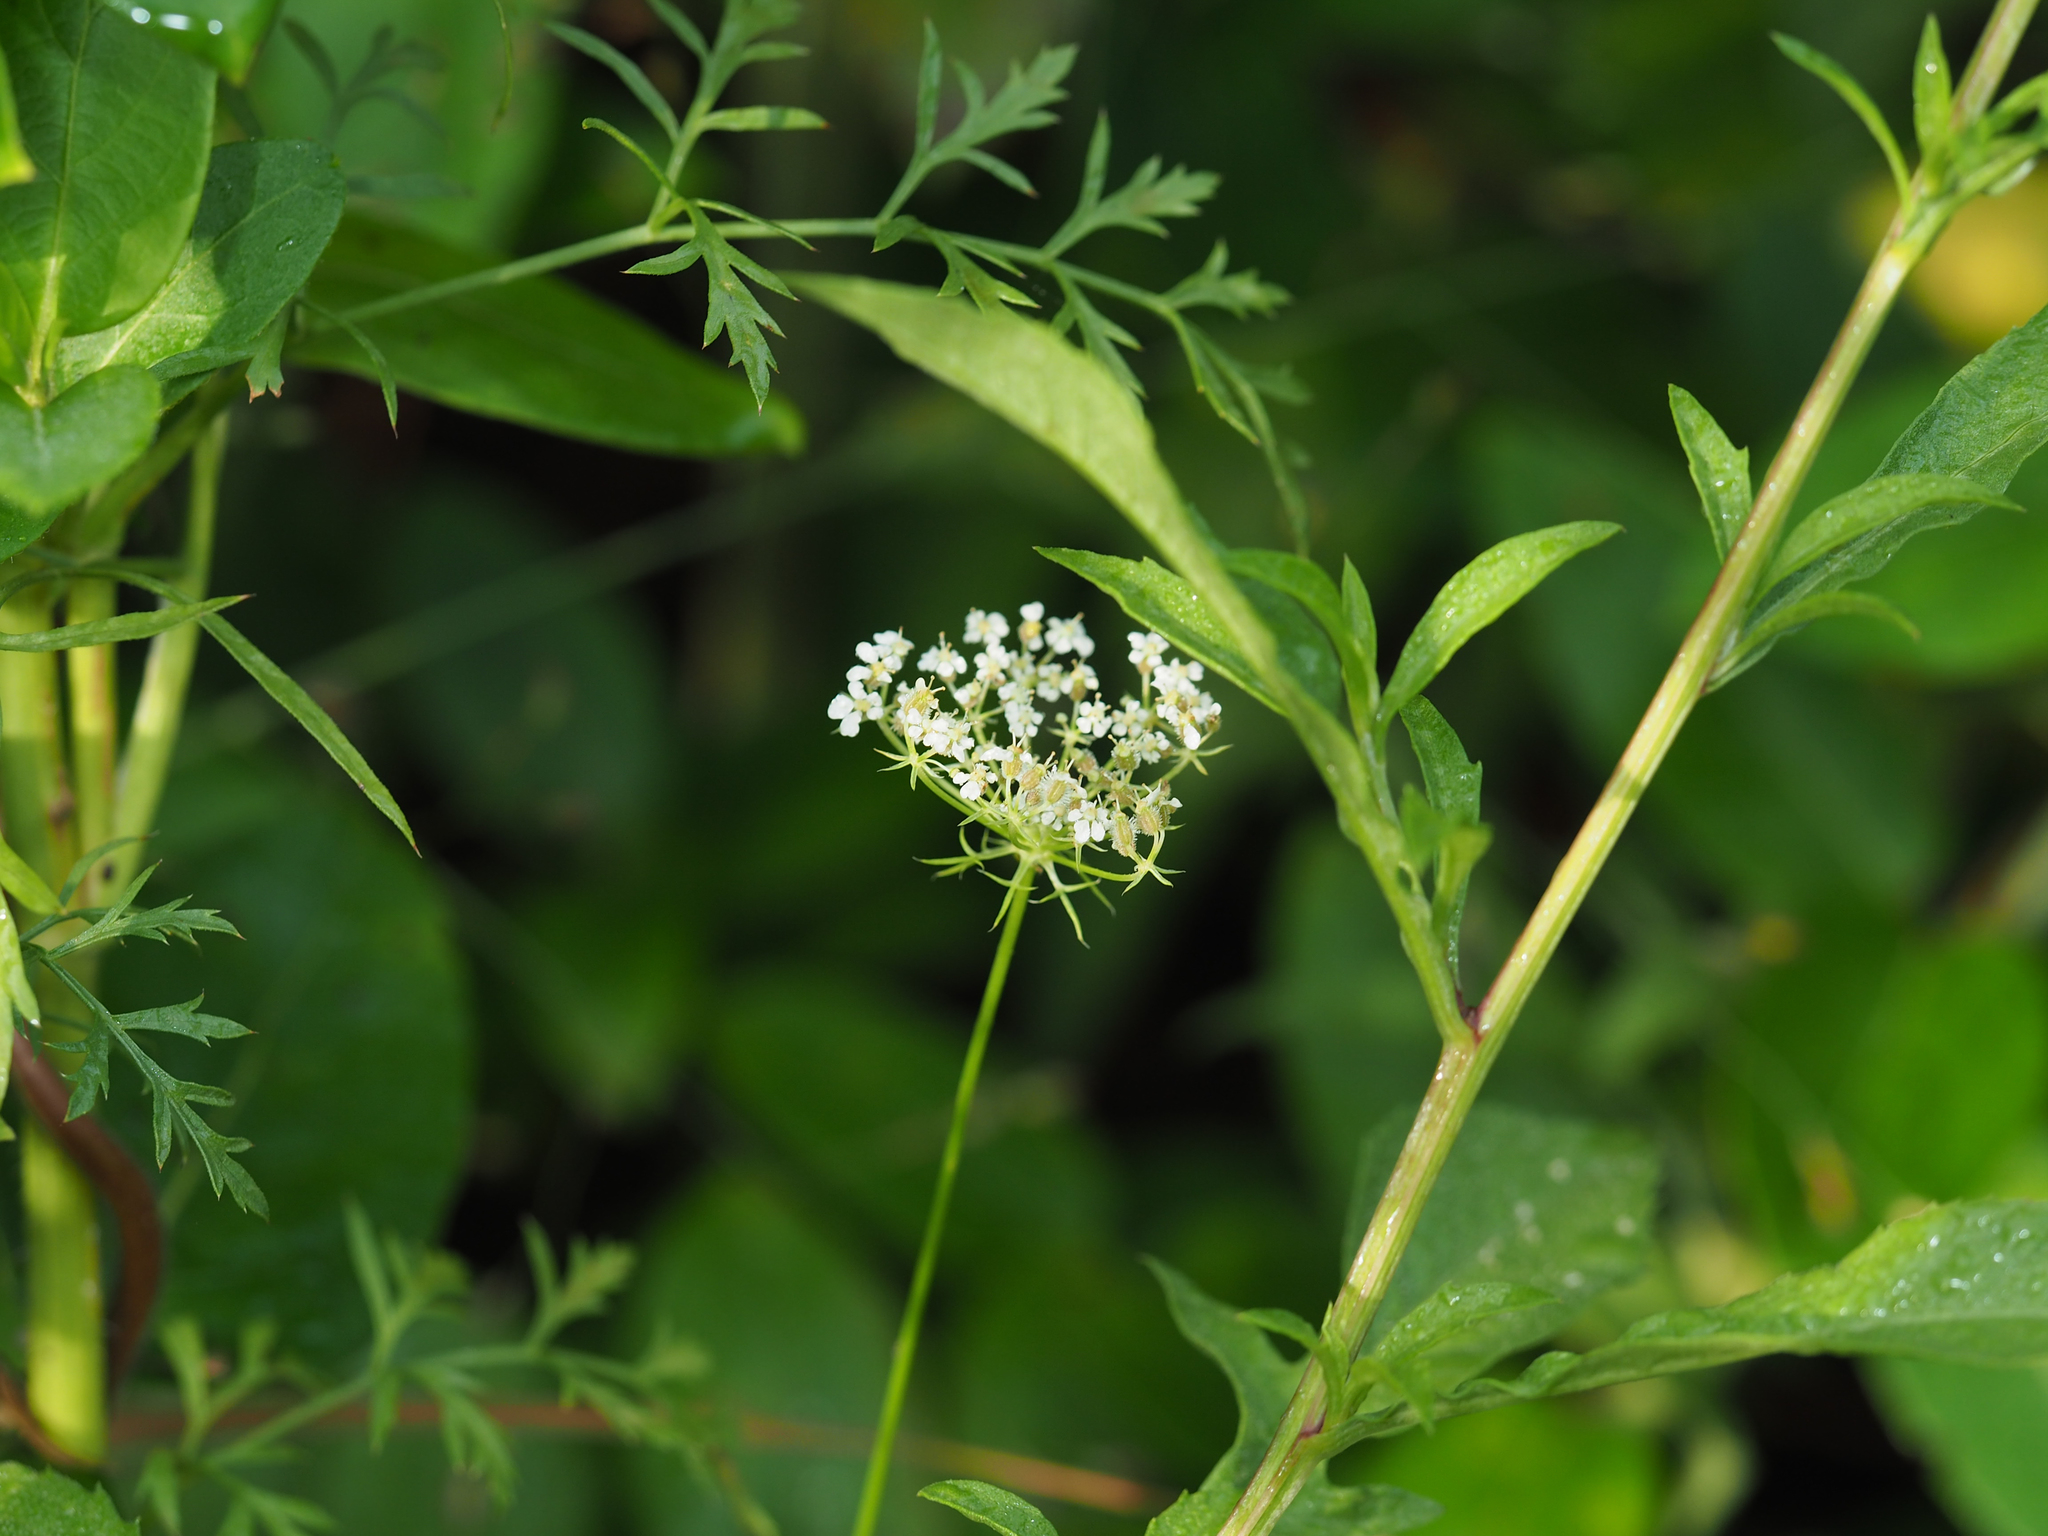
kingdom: Plantae
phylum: Tracheophyta
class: Magnoliopsida
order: Apiales
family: Apiaceae
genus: Daucus
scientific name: Daucus carota
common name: Wild carrot
